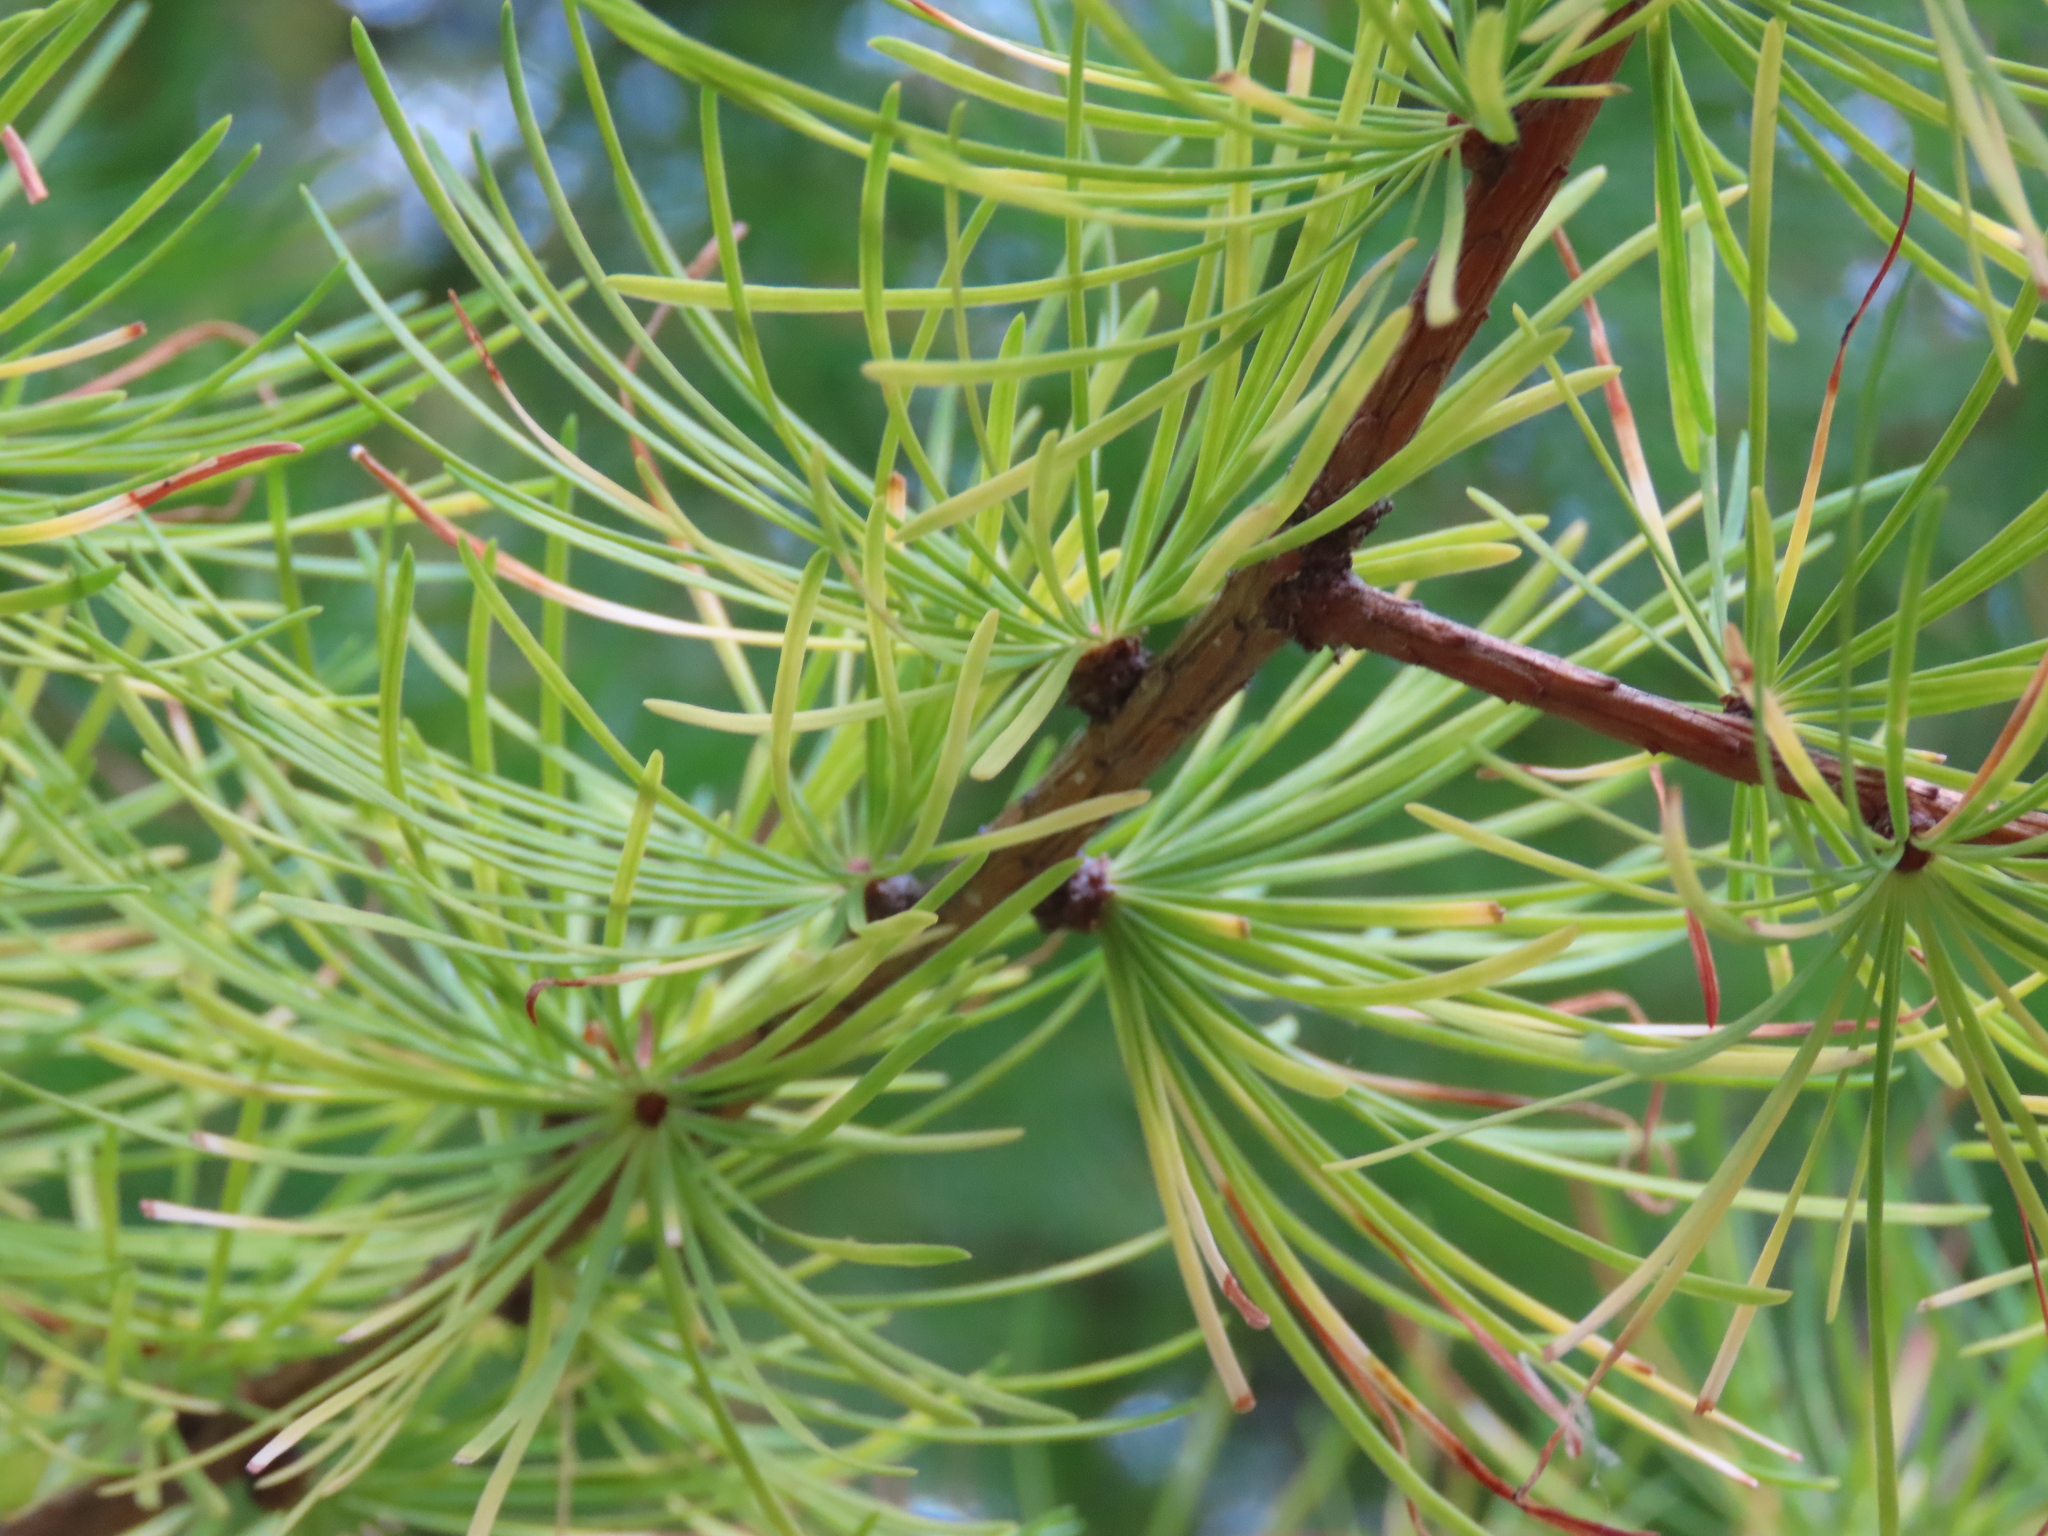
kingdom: Plantae
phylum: Tracheophyta
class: Pinopsida
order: Pinales
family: Pinaceae
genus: Larix
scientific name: Larix occidentalis
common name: Western larch
